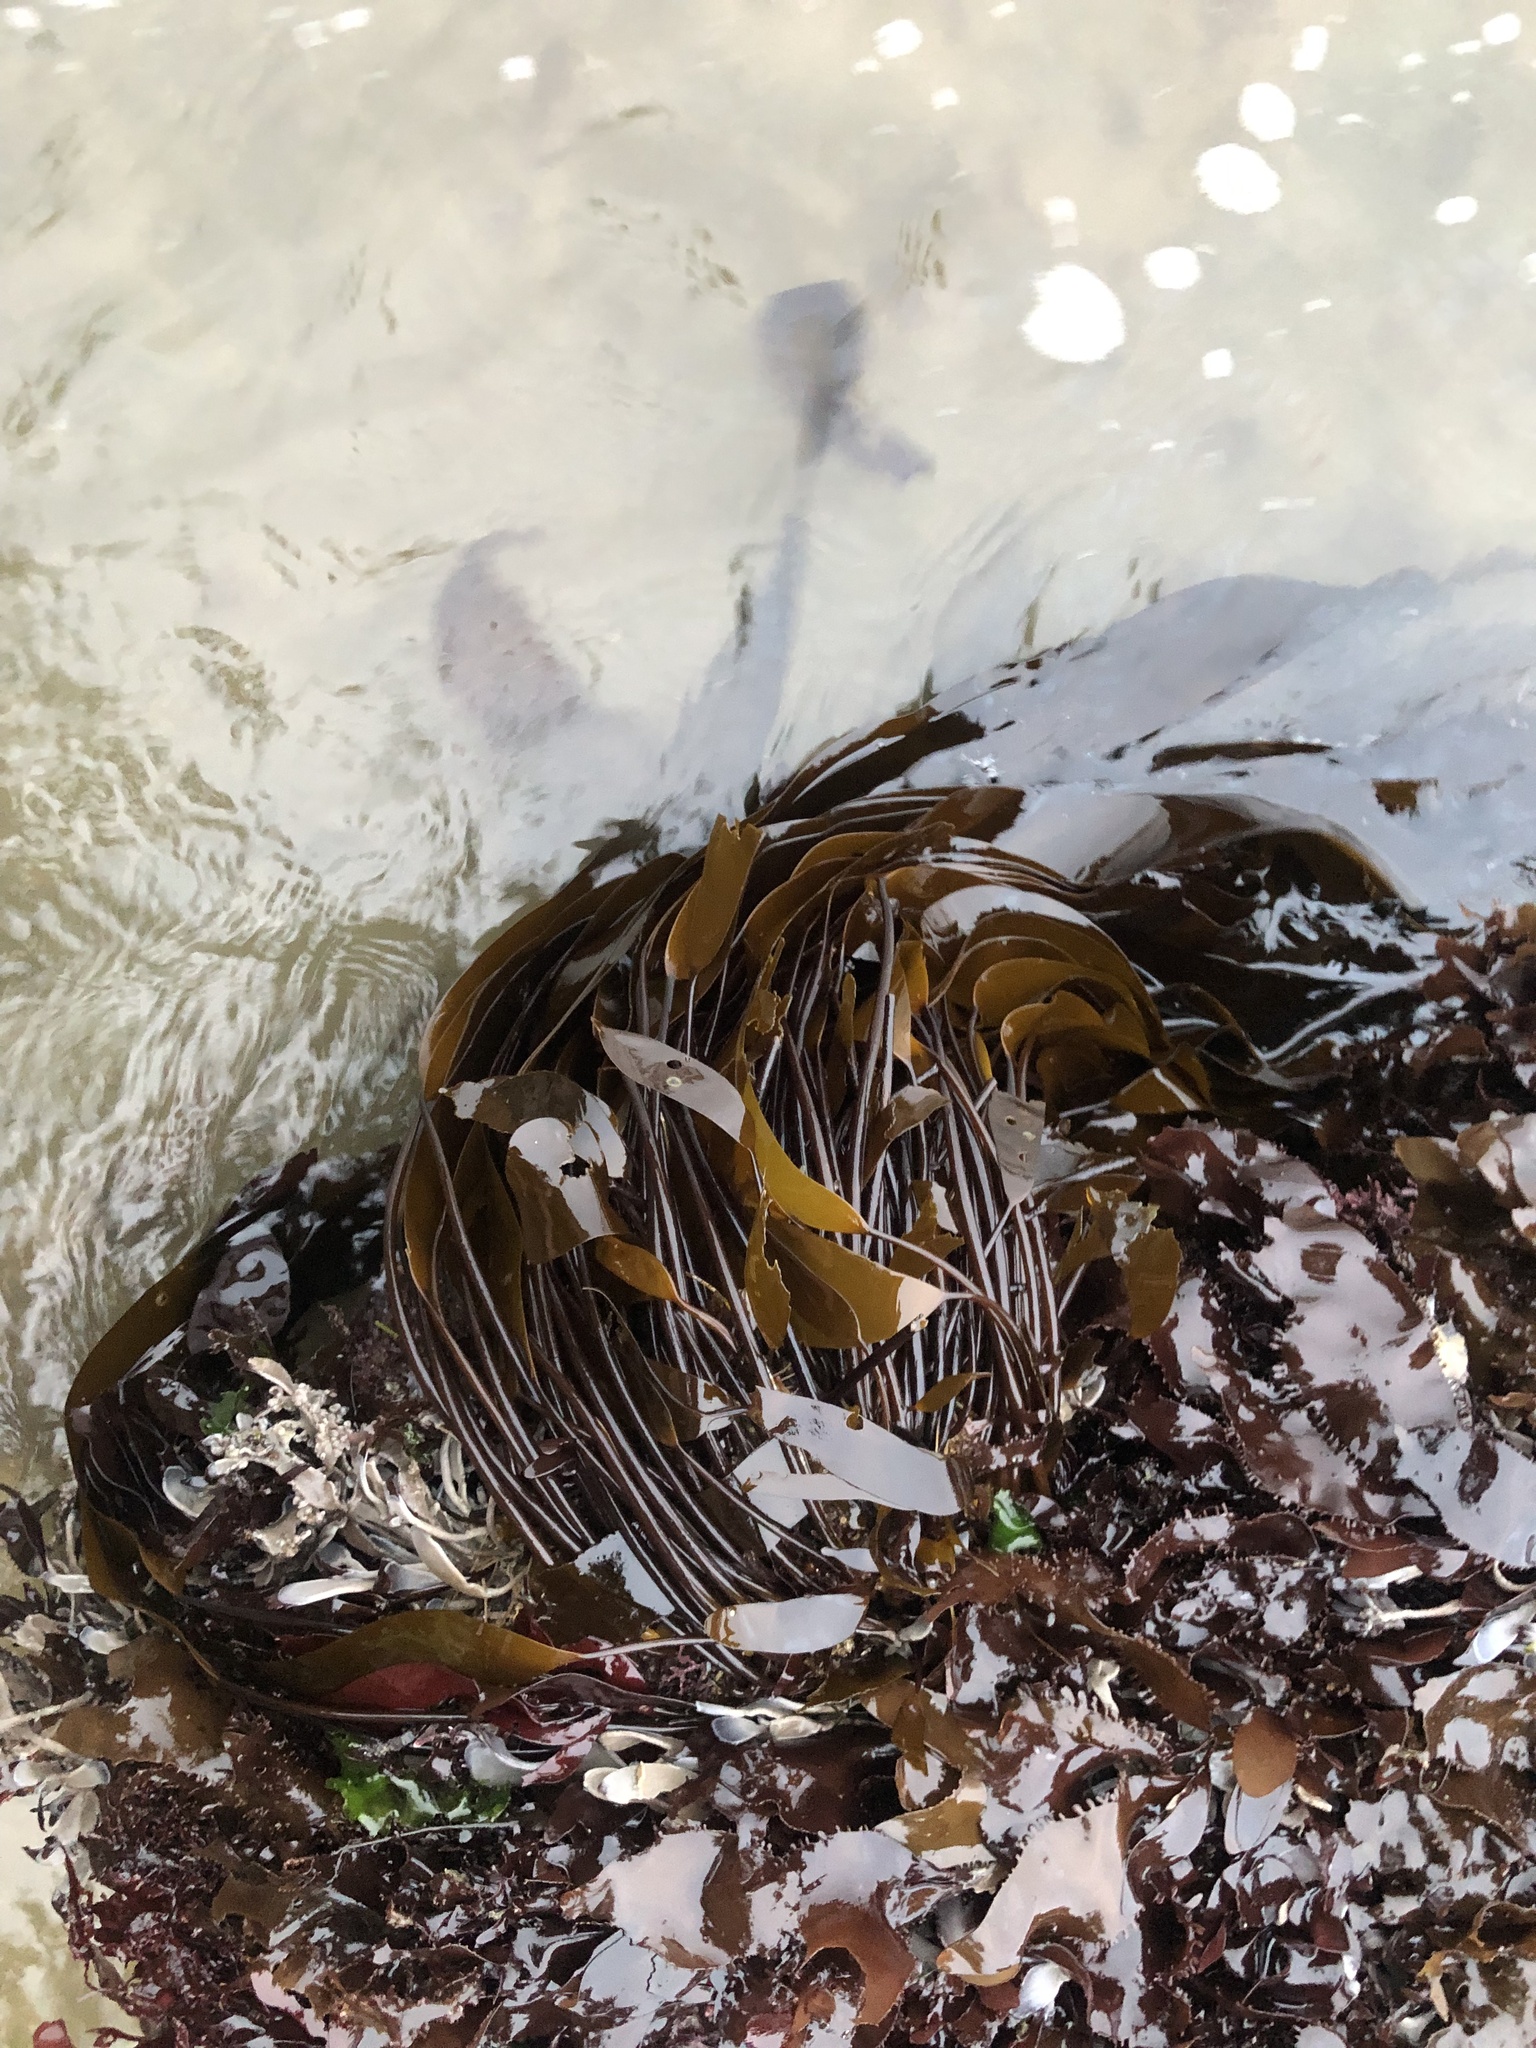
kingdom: Chromista
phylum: Ochrophyta
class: Phaeophyceae
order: Laminariales
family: Laminariaceae
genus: Laminaria
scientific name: Laminaria sinclairii
